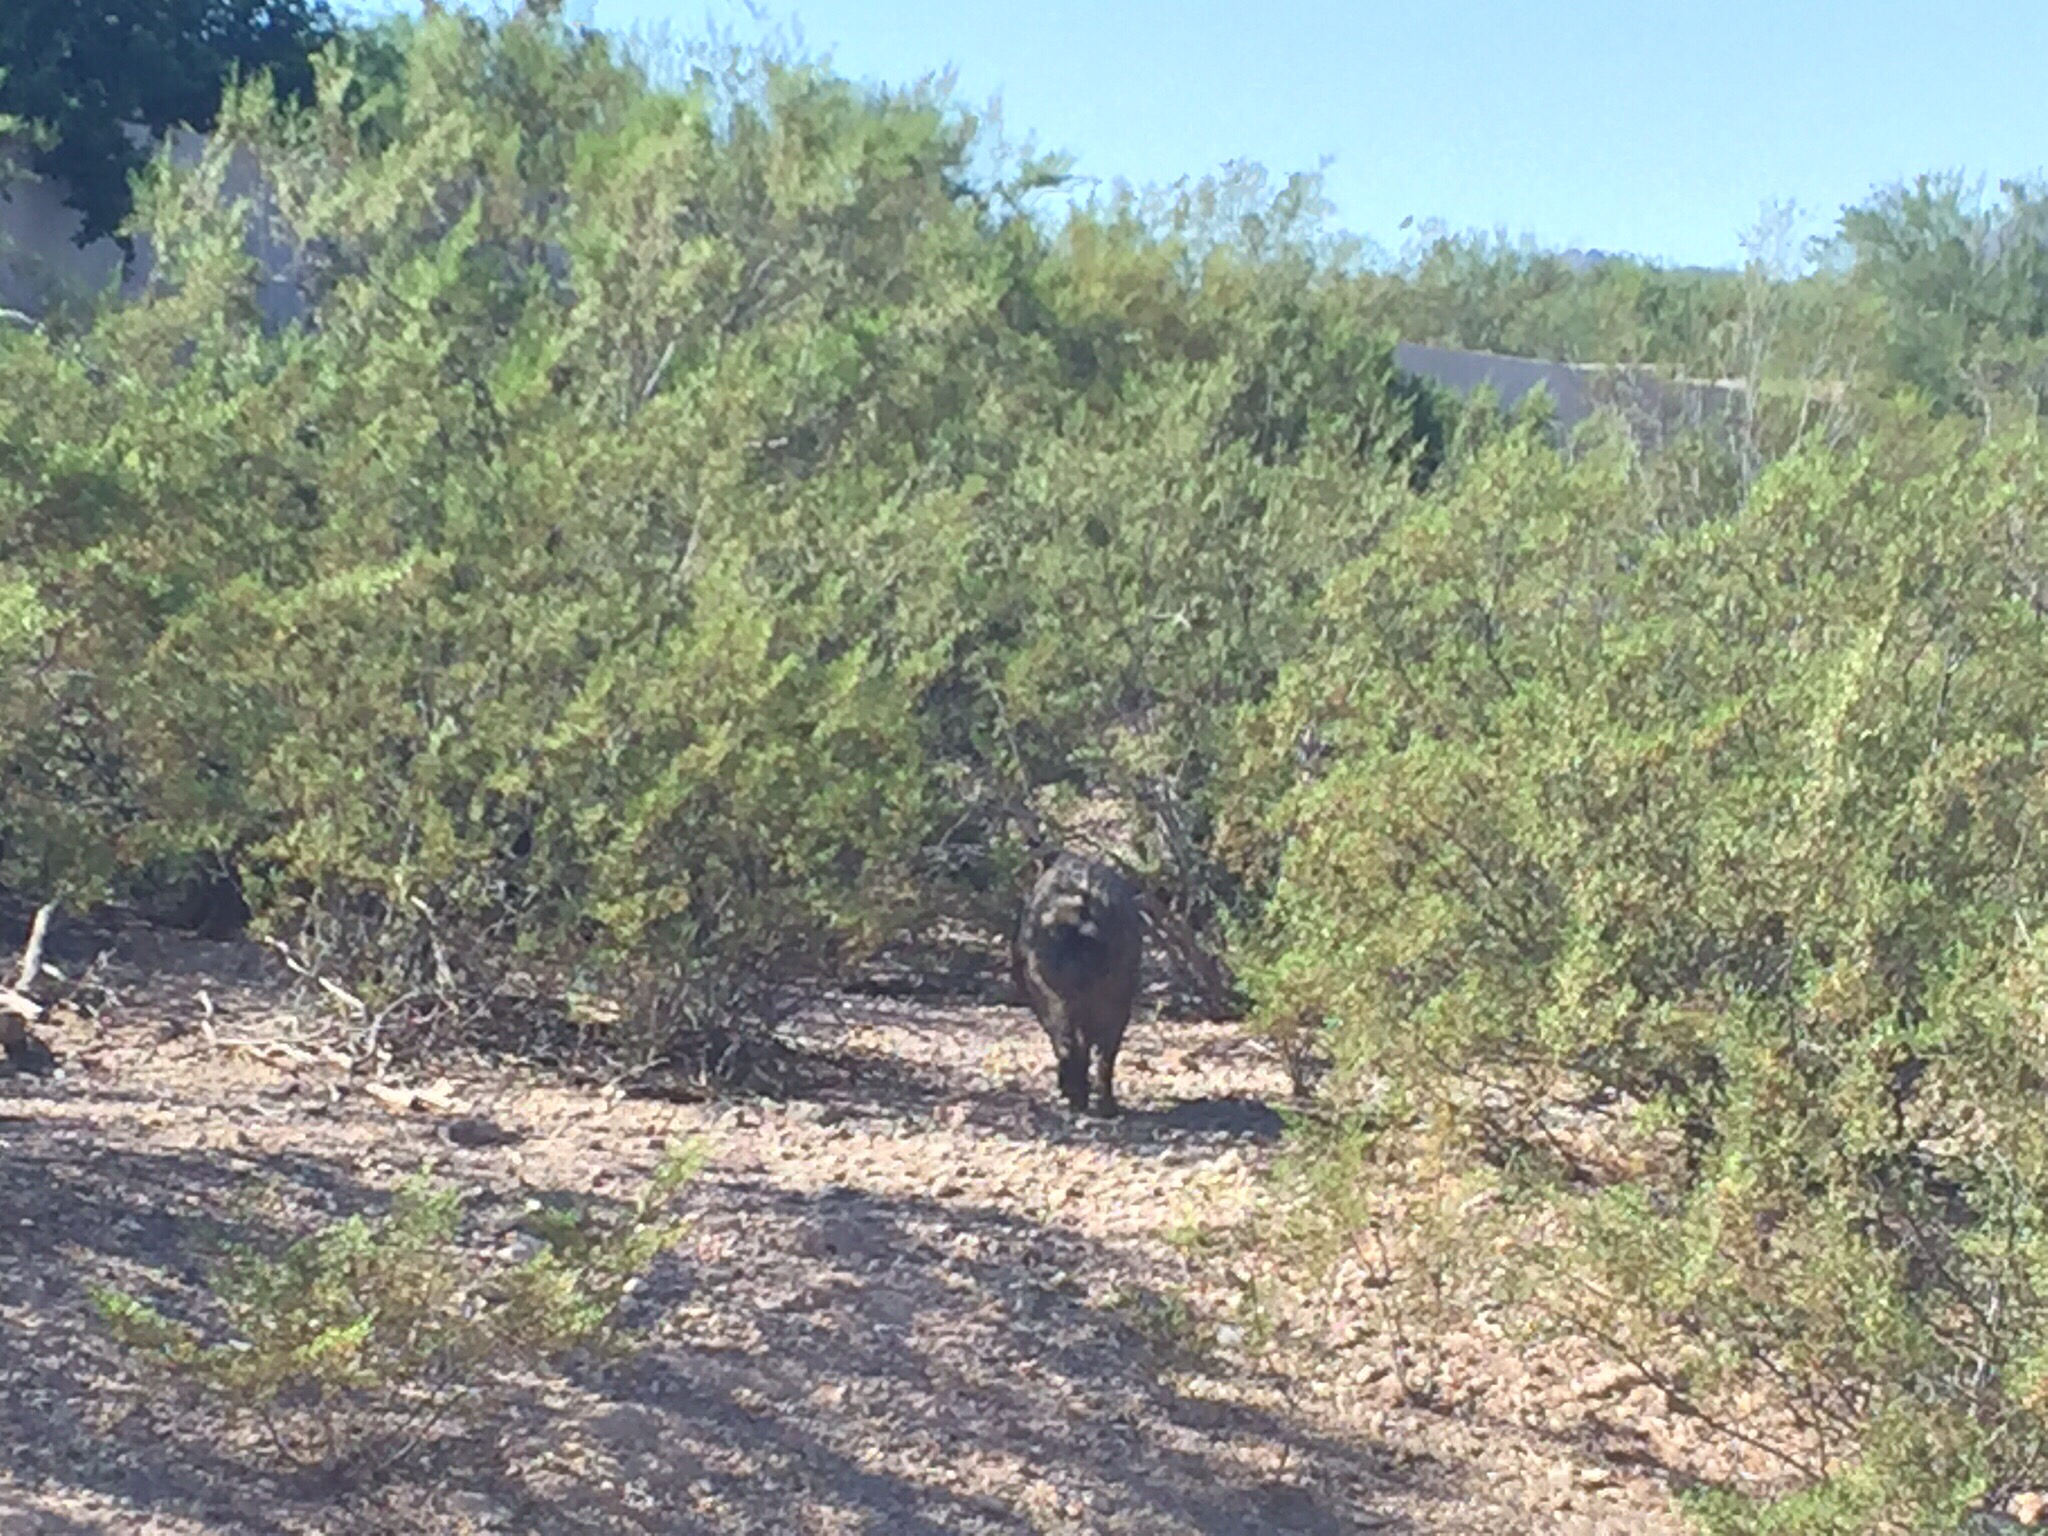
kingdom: Animalia
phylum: Chordata
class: Mammalia
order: Artiodactyla
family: Tayassuidae
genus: Pecari
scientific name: Pecari tajacu
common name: Collared peccary
